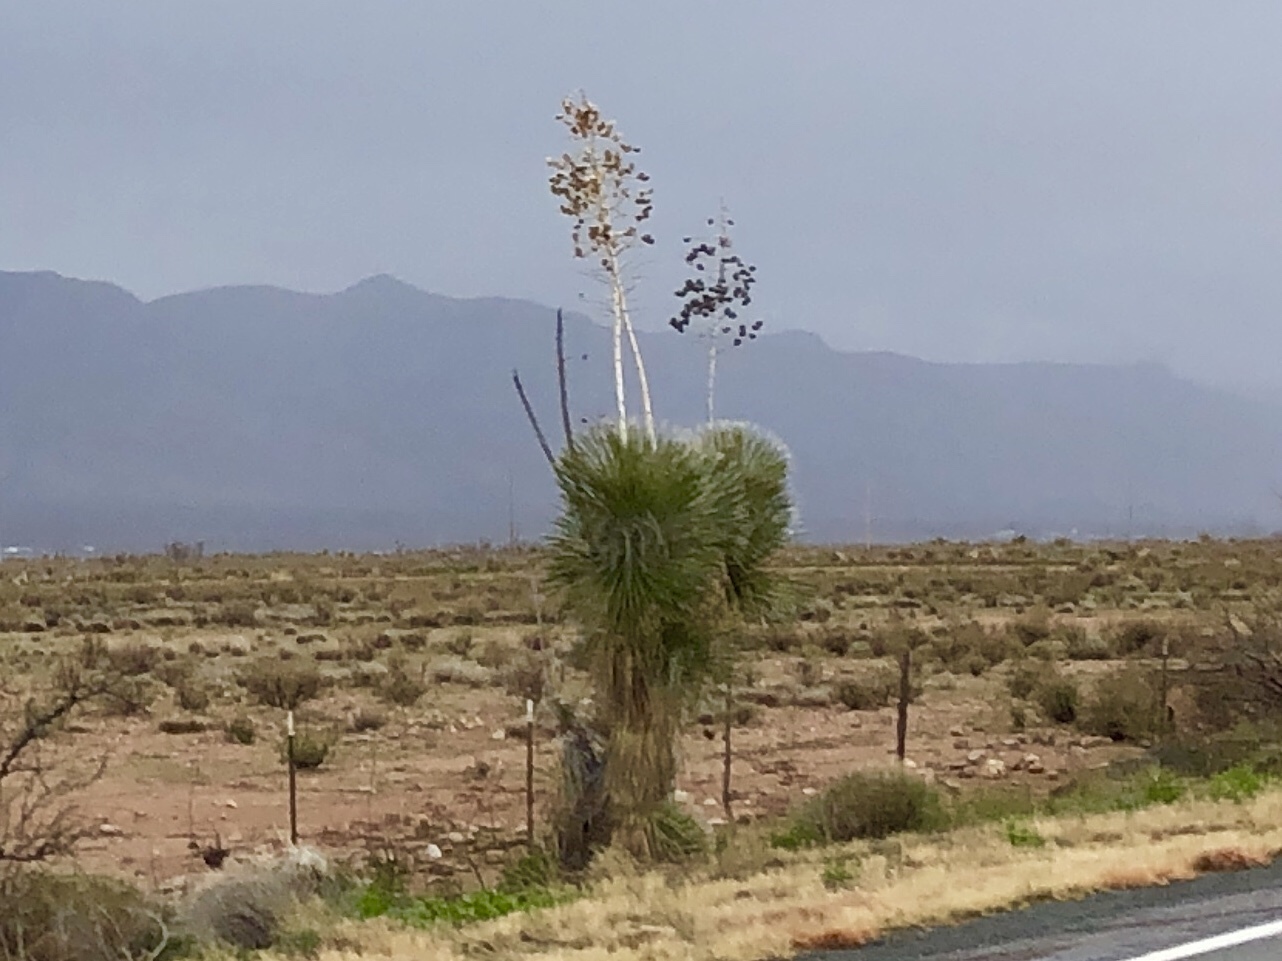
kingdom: Plantae
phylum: Tracheophyta
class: Liliopsida
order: Asparagales
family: Asparagaceae
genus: Yucca
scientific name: Yucca elata
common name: Palmella
